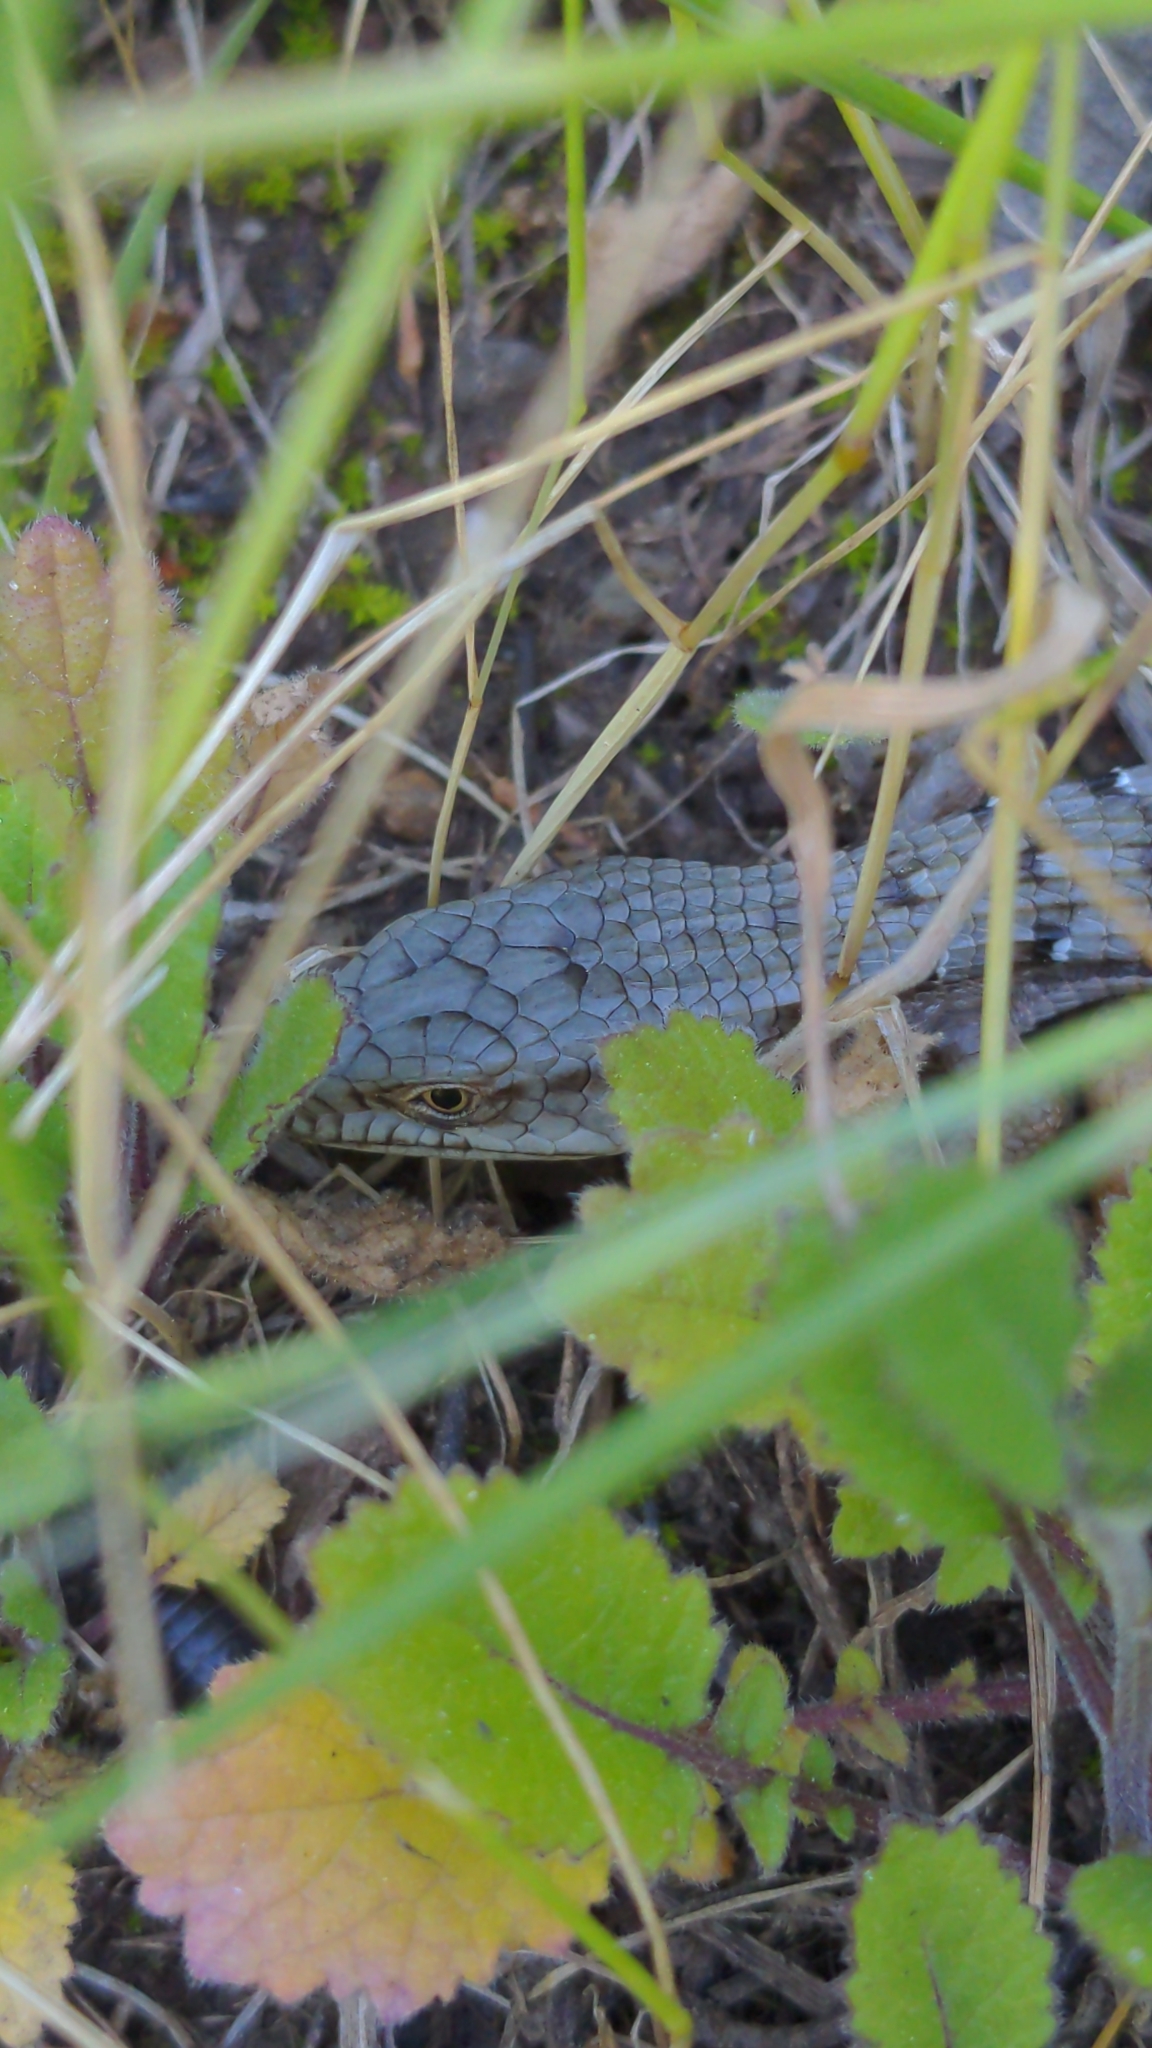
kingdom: Animalia
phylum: Chordata
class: Squamata
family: Anguidae
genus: Elgaria
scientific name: Elgaria multicarinata
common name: Southern alligator lizard
